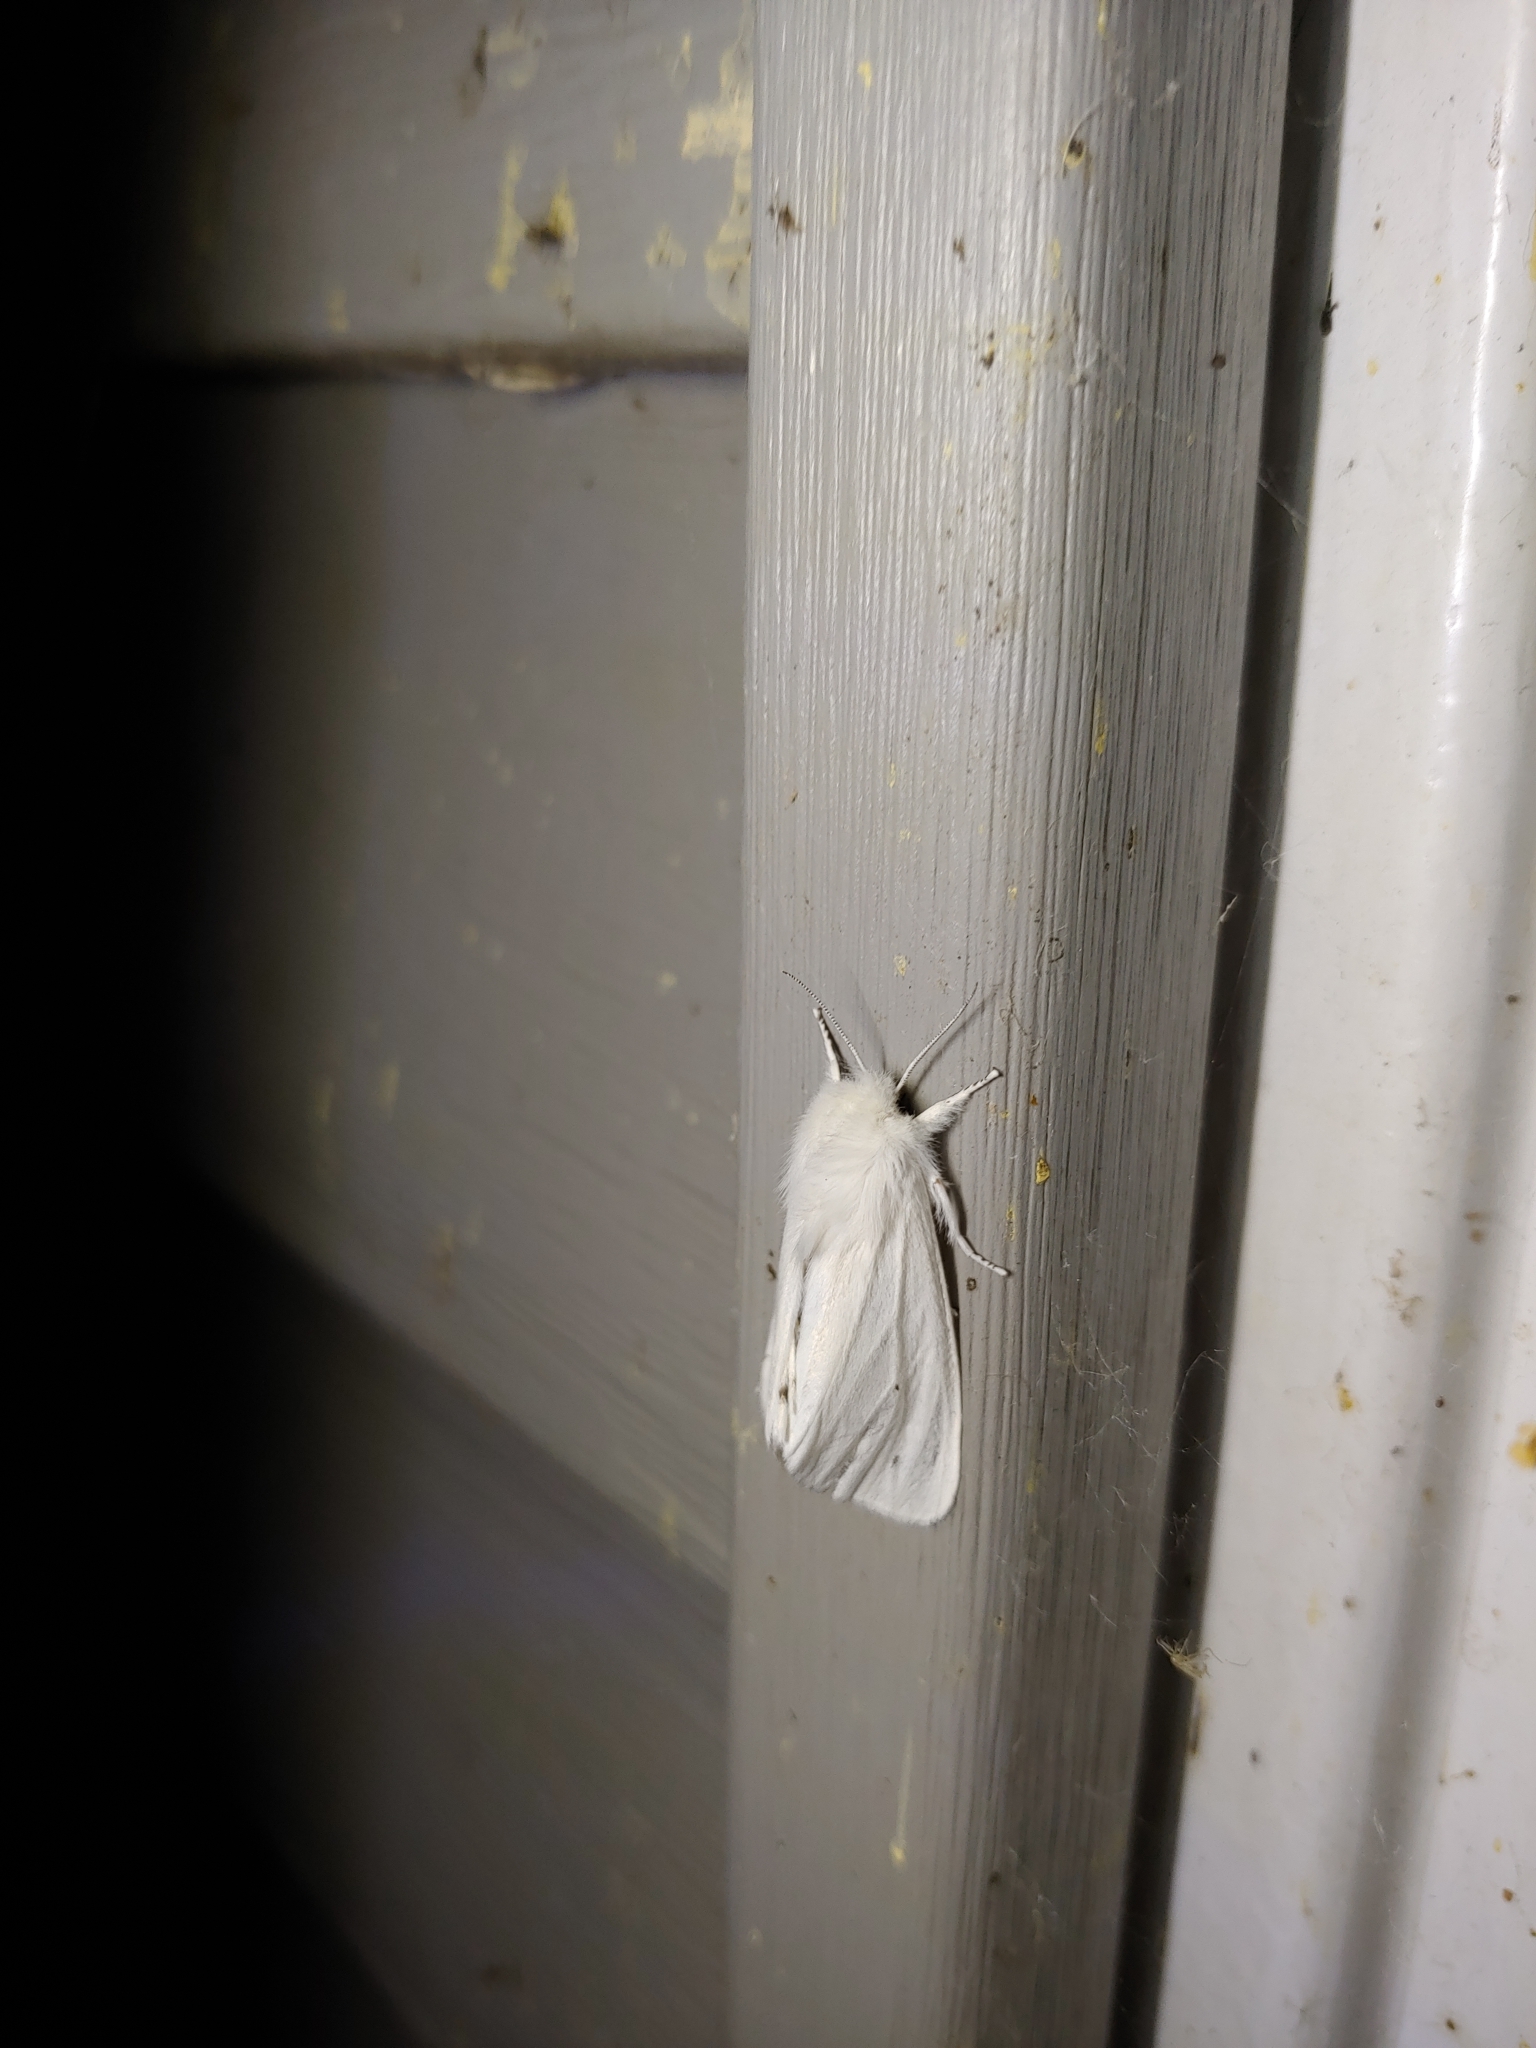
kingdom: Animalia
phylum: Arthropoda
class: Insecta
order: Lepidoptera
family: Erebidae
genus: Spilosoma
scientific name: Spilosoma virginica
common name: Virginia tiger moth
